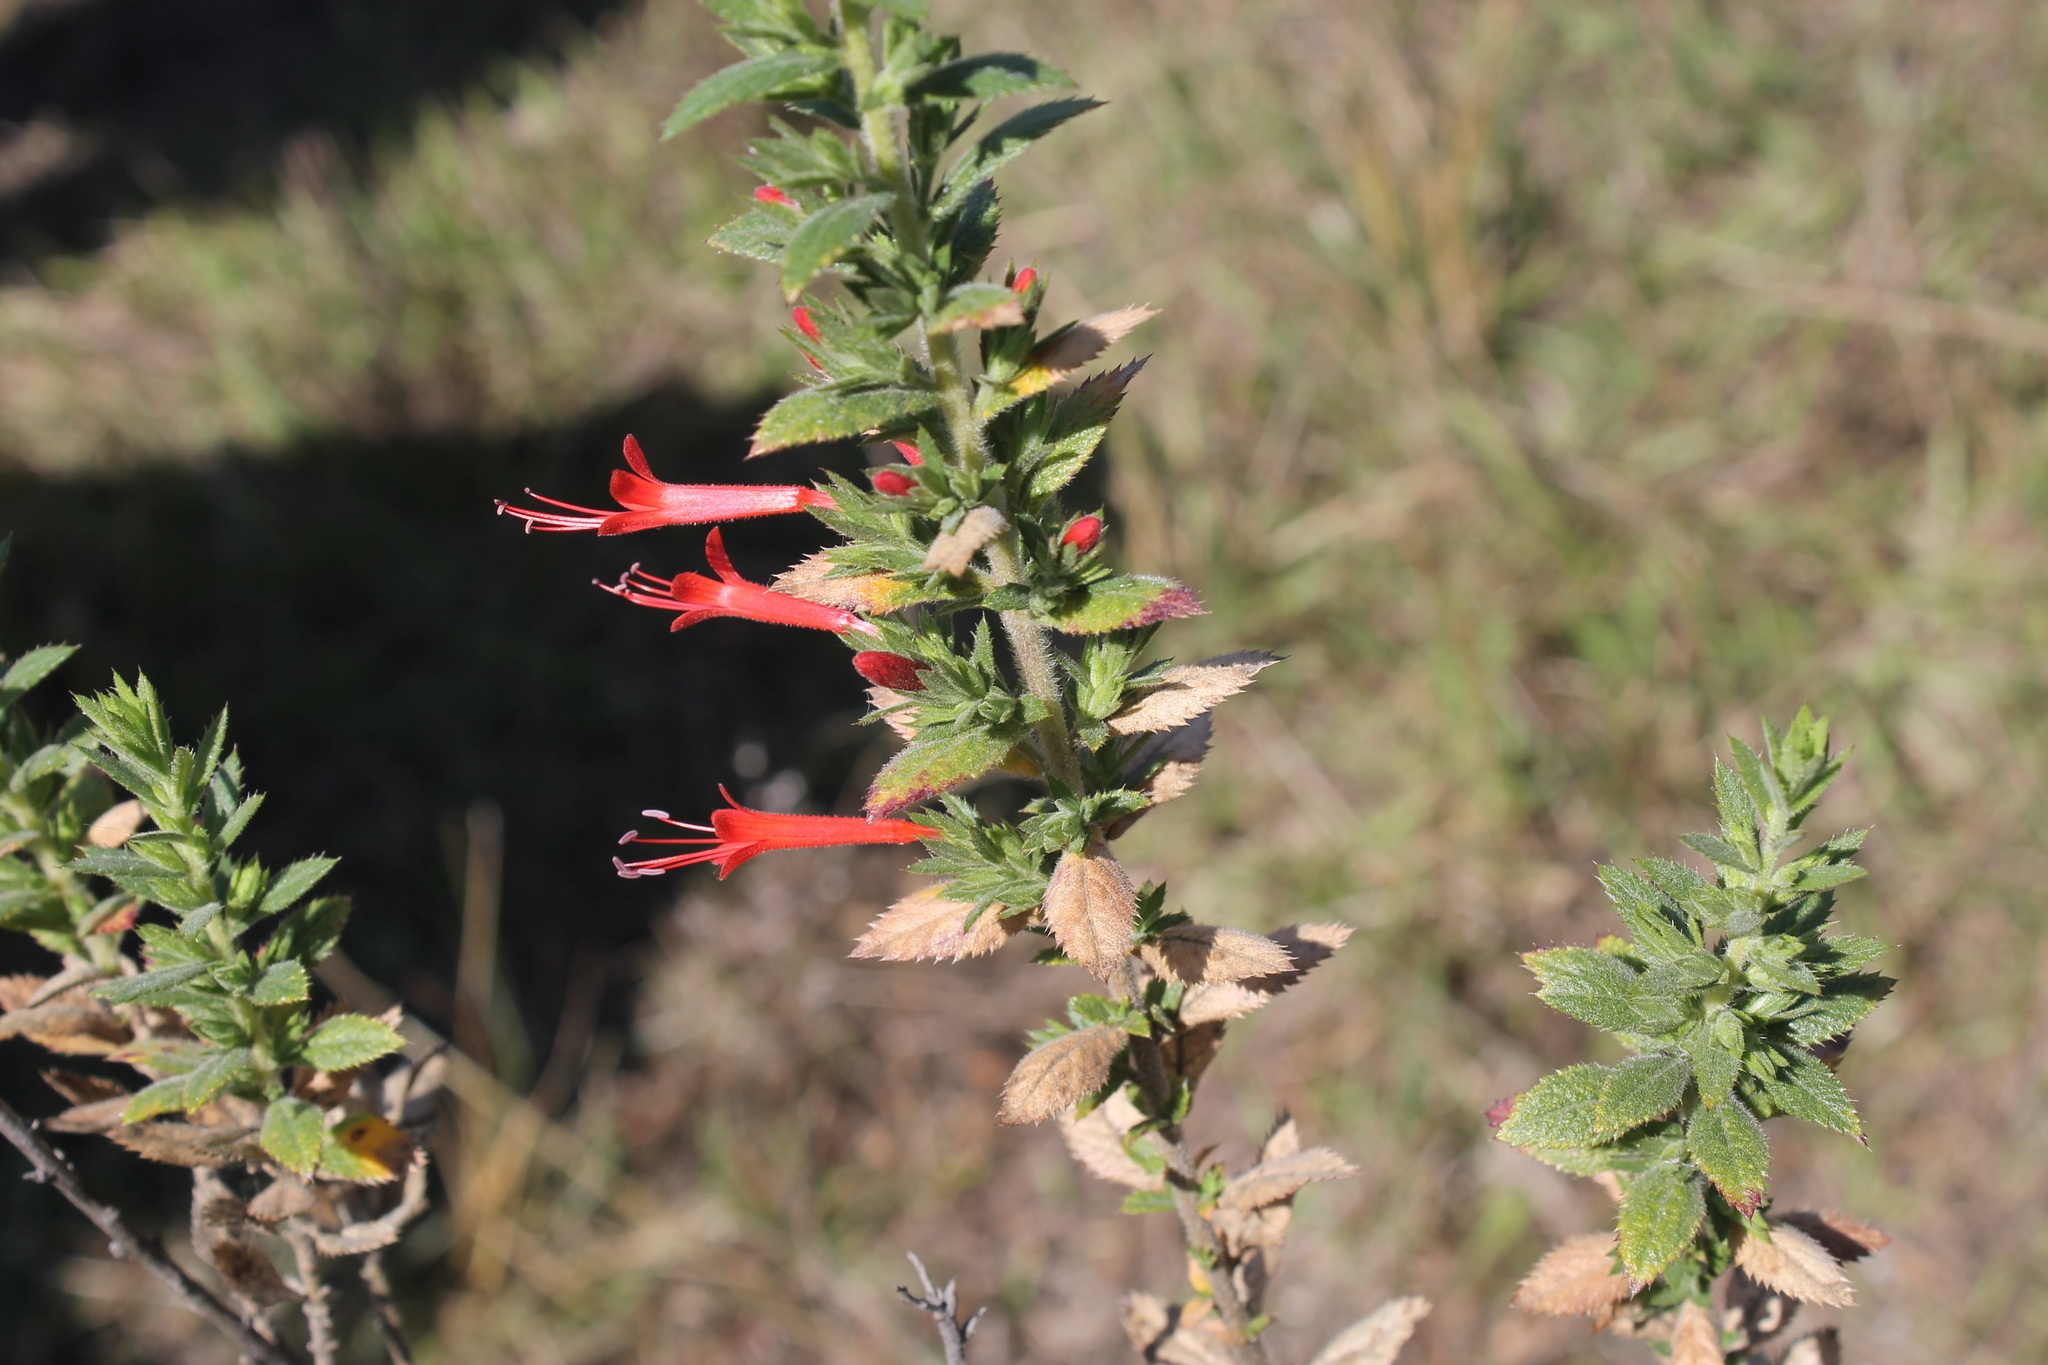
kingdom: Plantae
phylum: Tracheophyta
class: Magnoliopsida
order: Ericales
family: Polemoniaceae
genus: Loeselia
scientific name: Loeselia mexicana
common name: Mexican false calico
